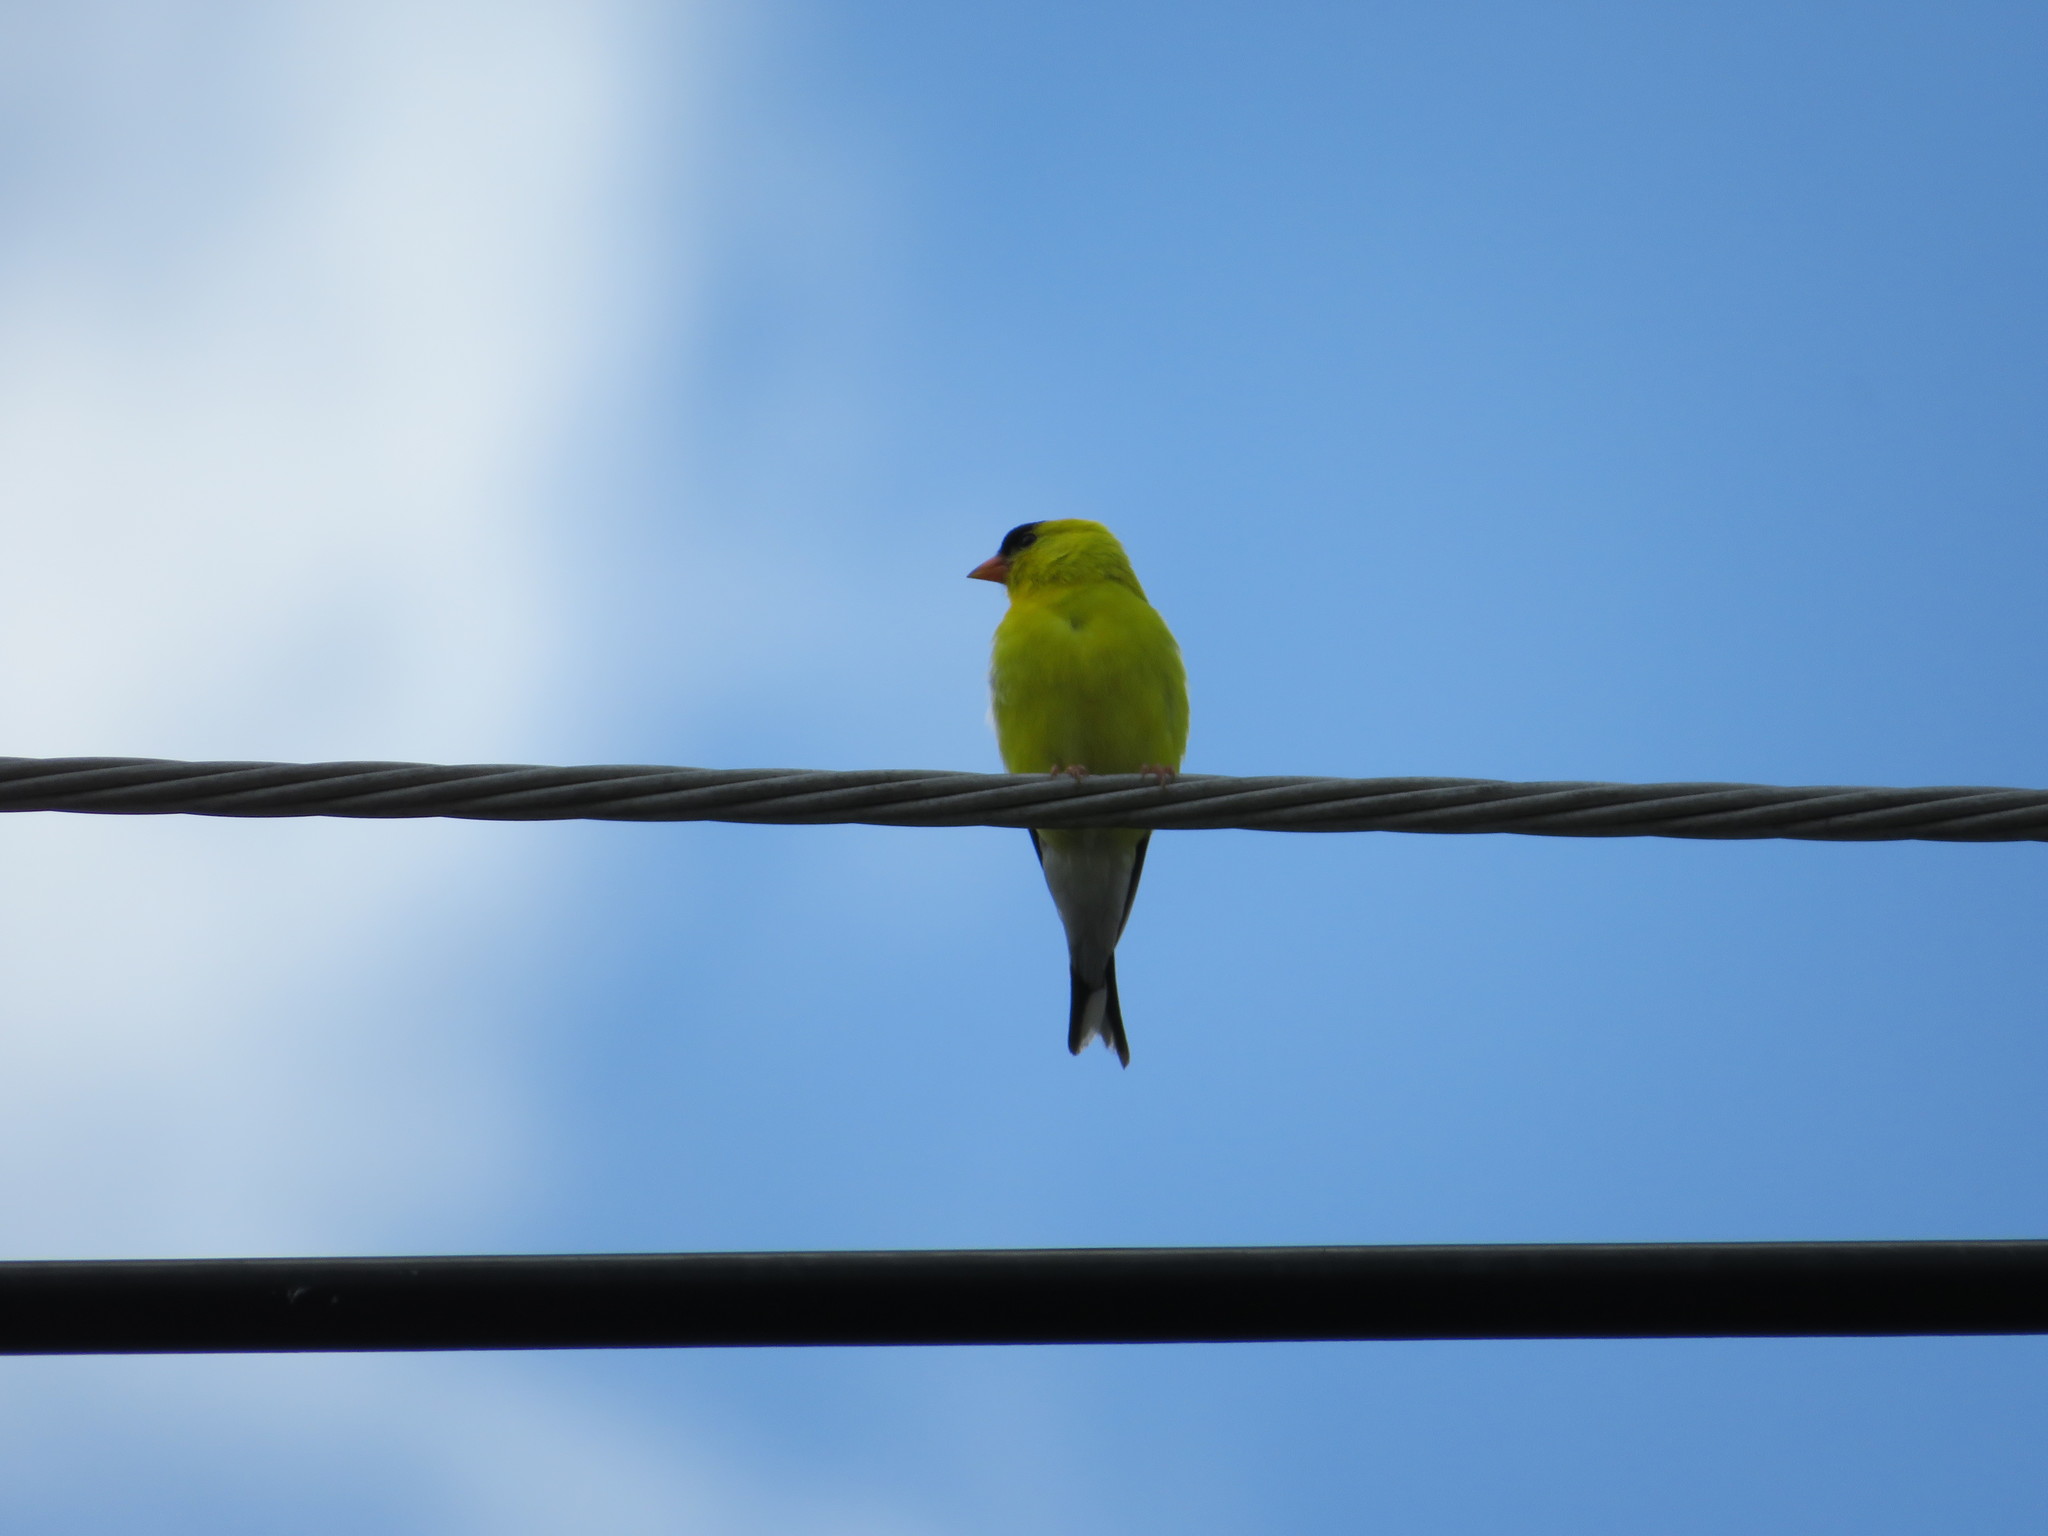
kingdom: Animalia
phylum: Chordata
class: Aves
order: Passeriformes
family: Fringillidae
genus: Spinus
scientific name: Spinus tristis
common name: American goldfinch
